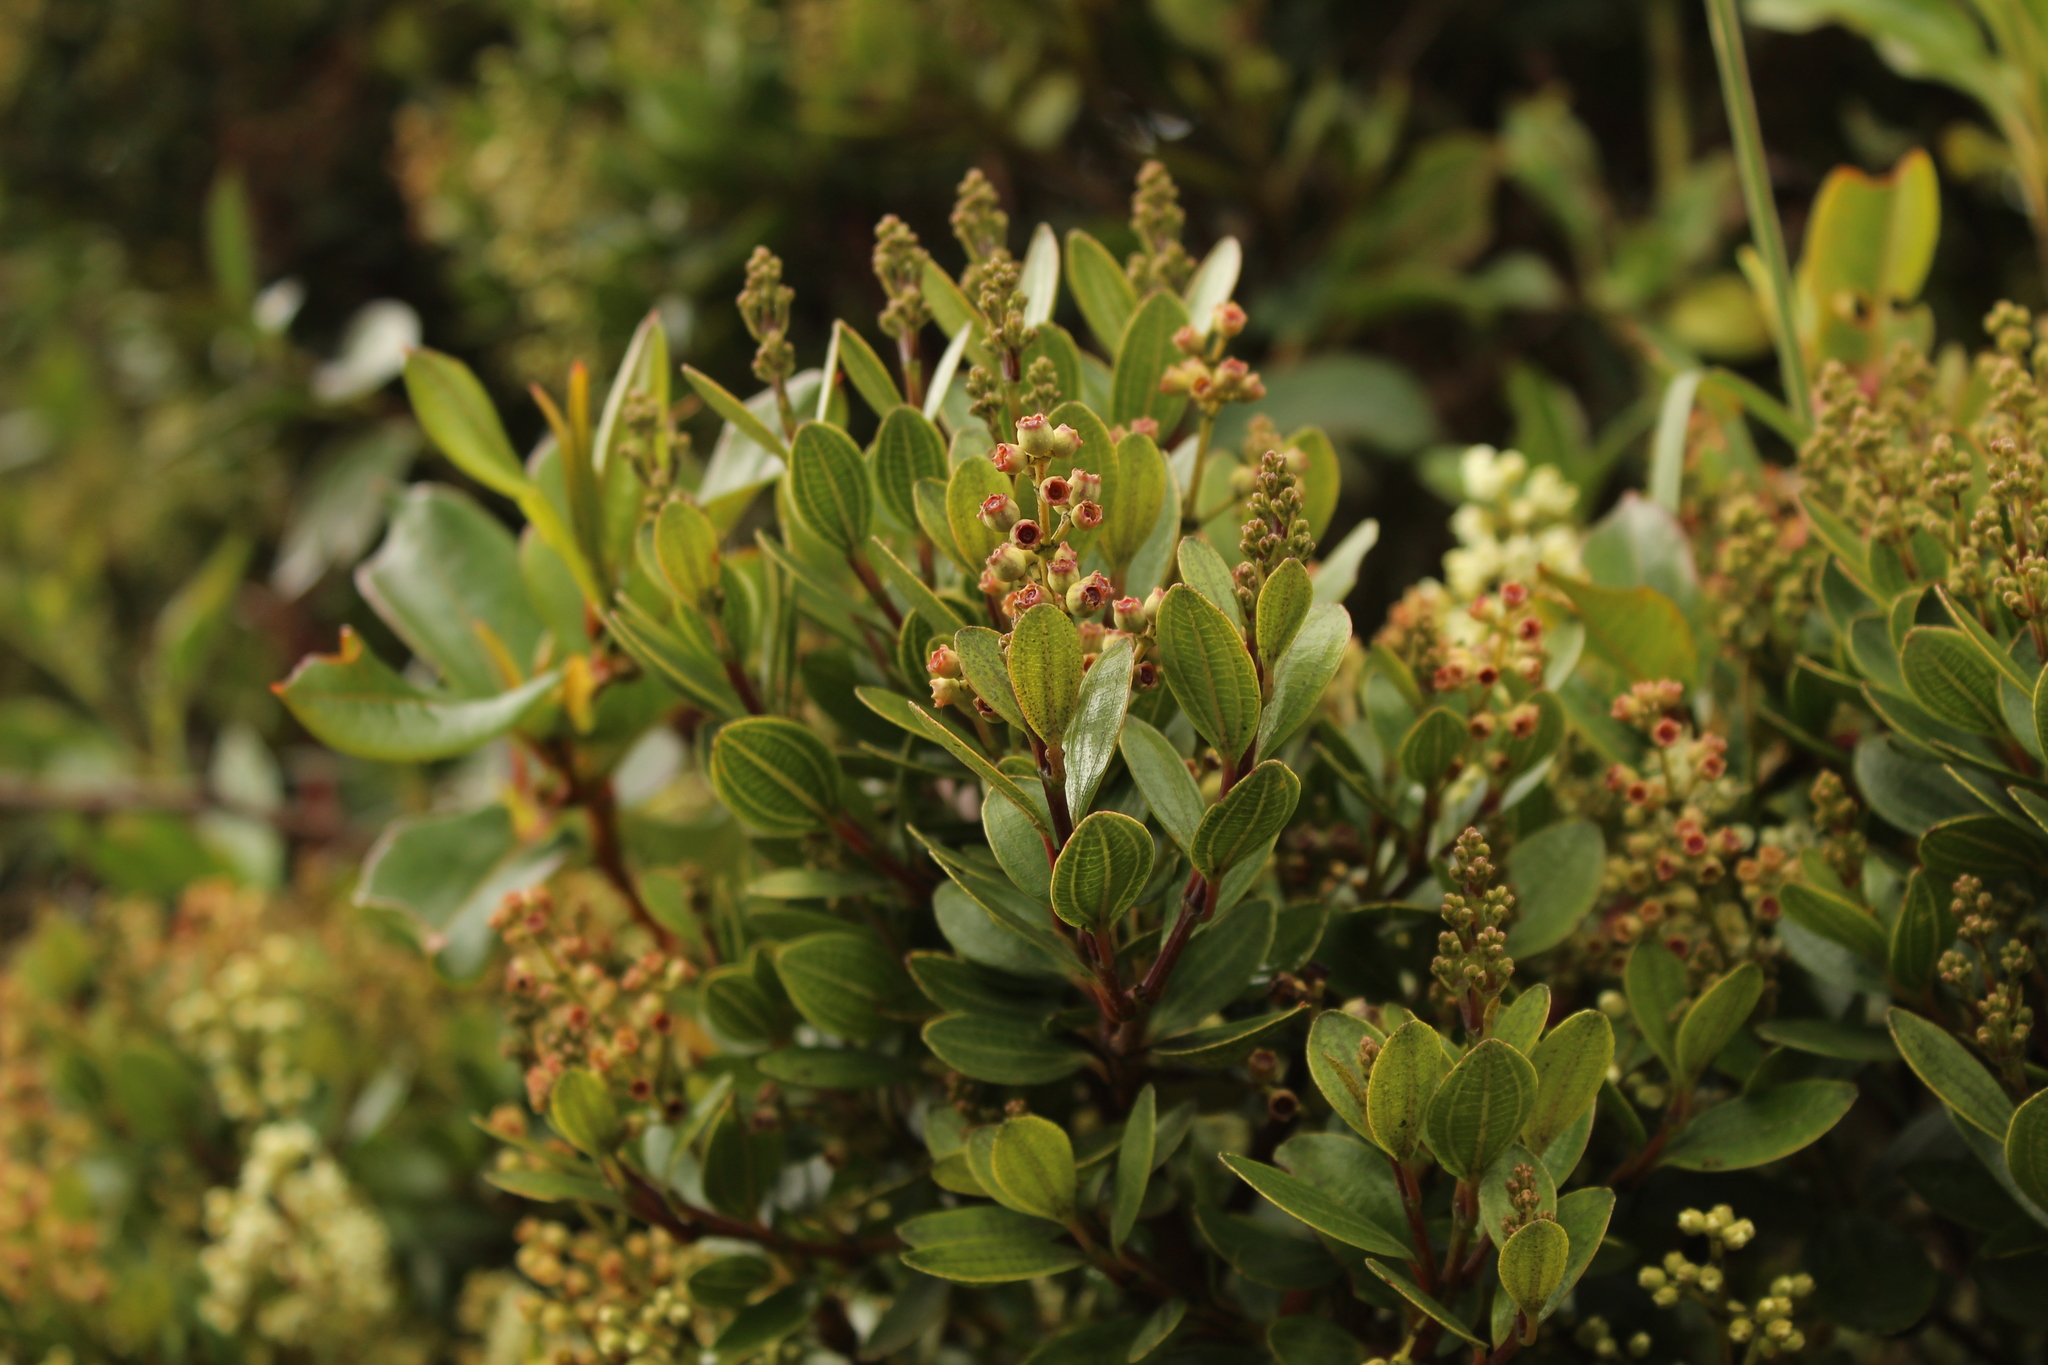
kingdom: Plantae
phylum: Tracheophyta
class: Magnoliopsida
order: Myrtales
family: Melastomataceae
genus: Miconia
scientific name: Miconia ligustrina
